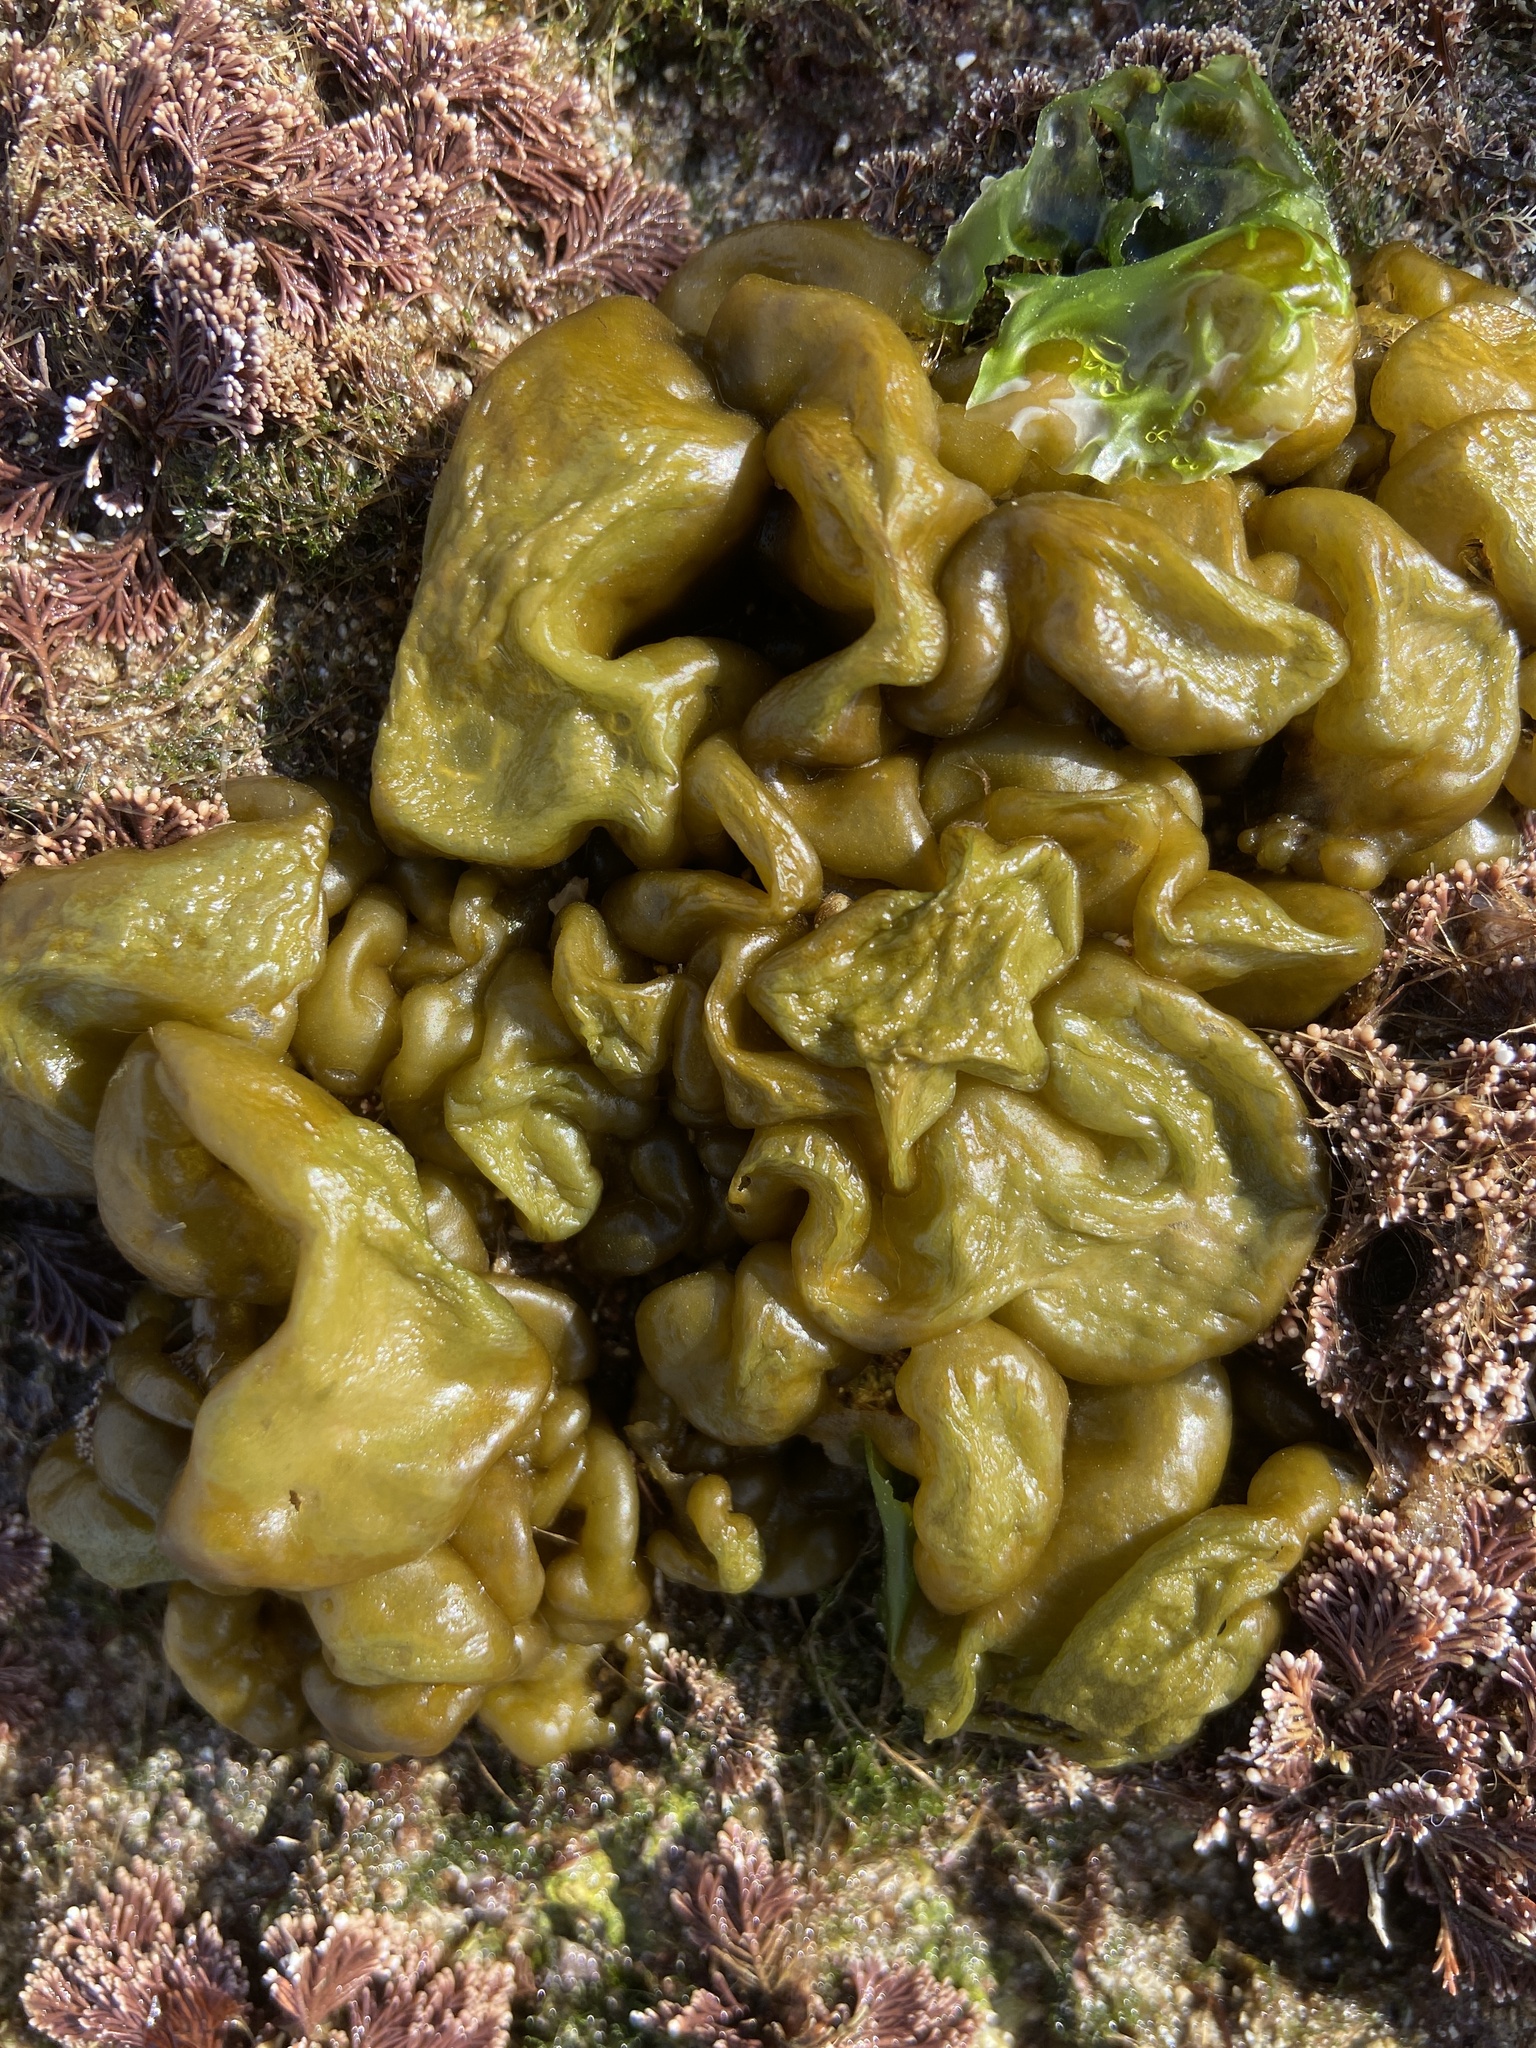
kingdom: Chromista
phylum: Ochrophyta
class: Phaeophyceae
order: Scytosiphonales
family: Scytosiphonaceae
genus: Colpomenia
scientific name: Colpomenia sinuosa
